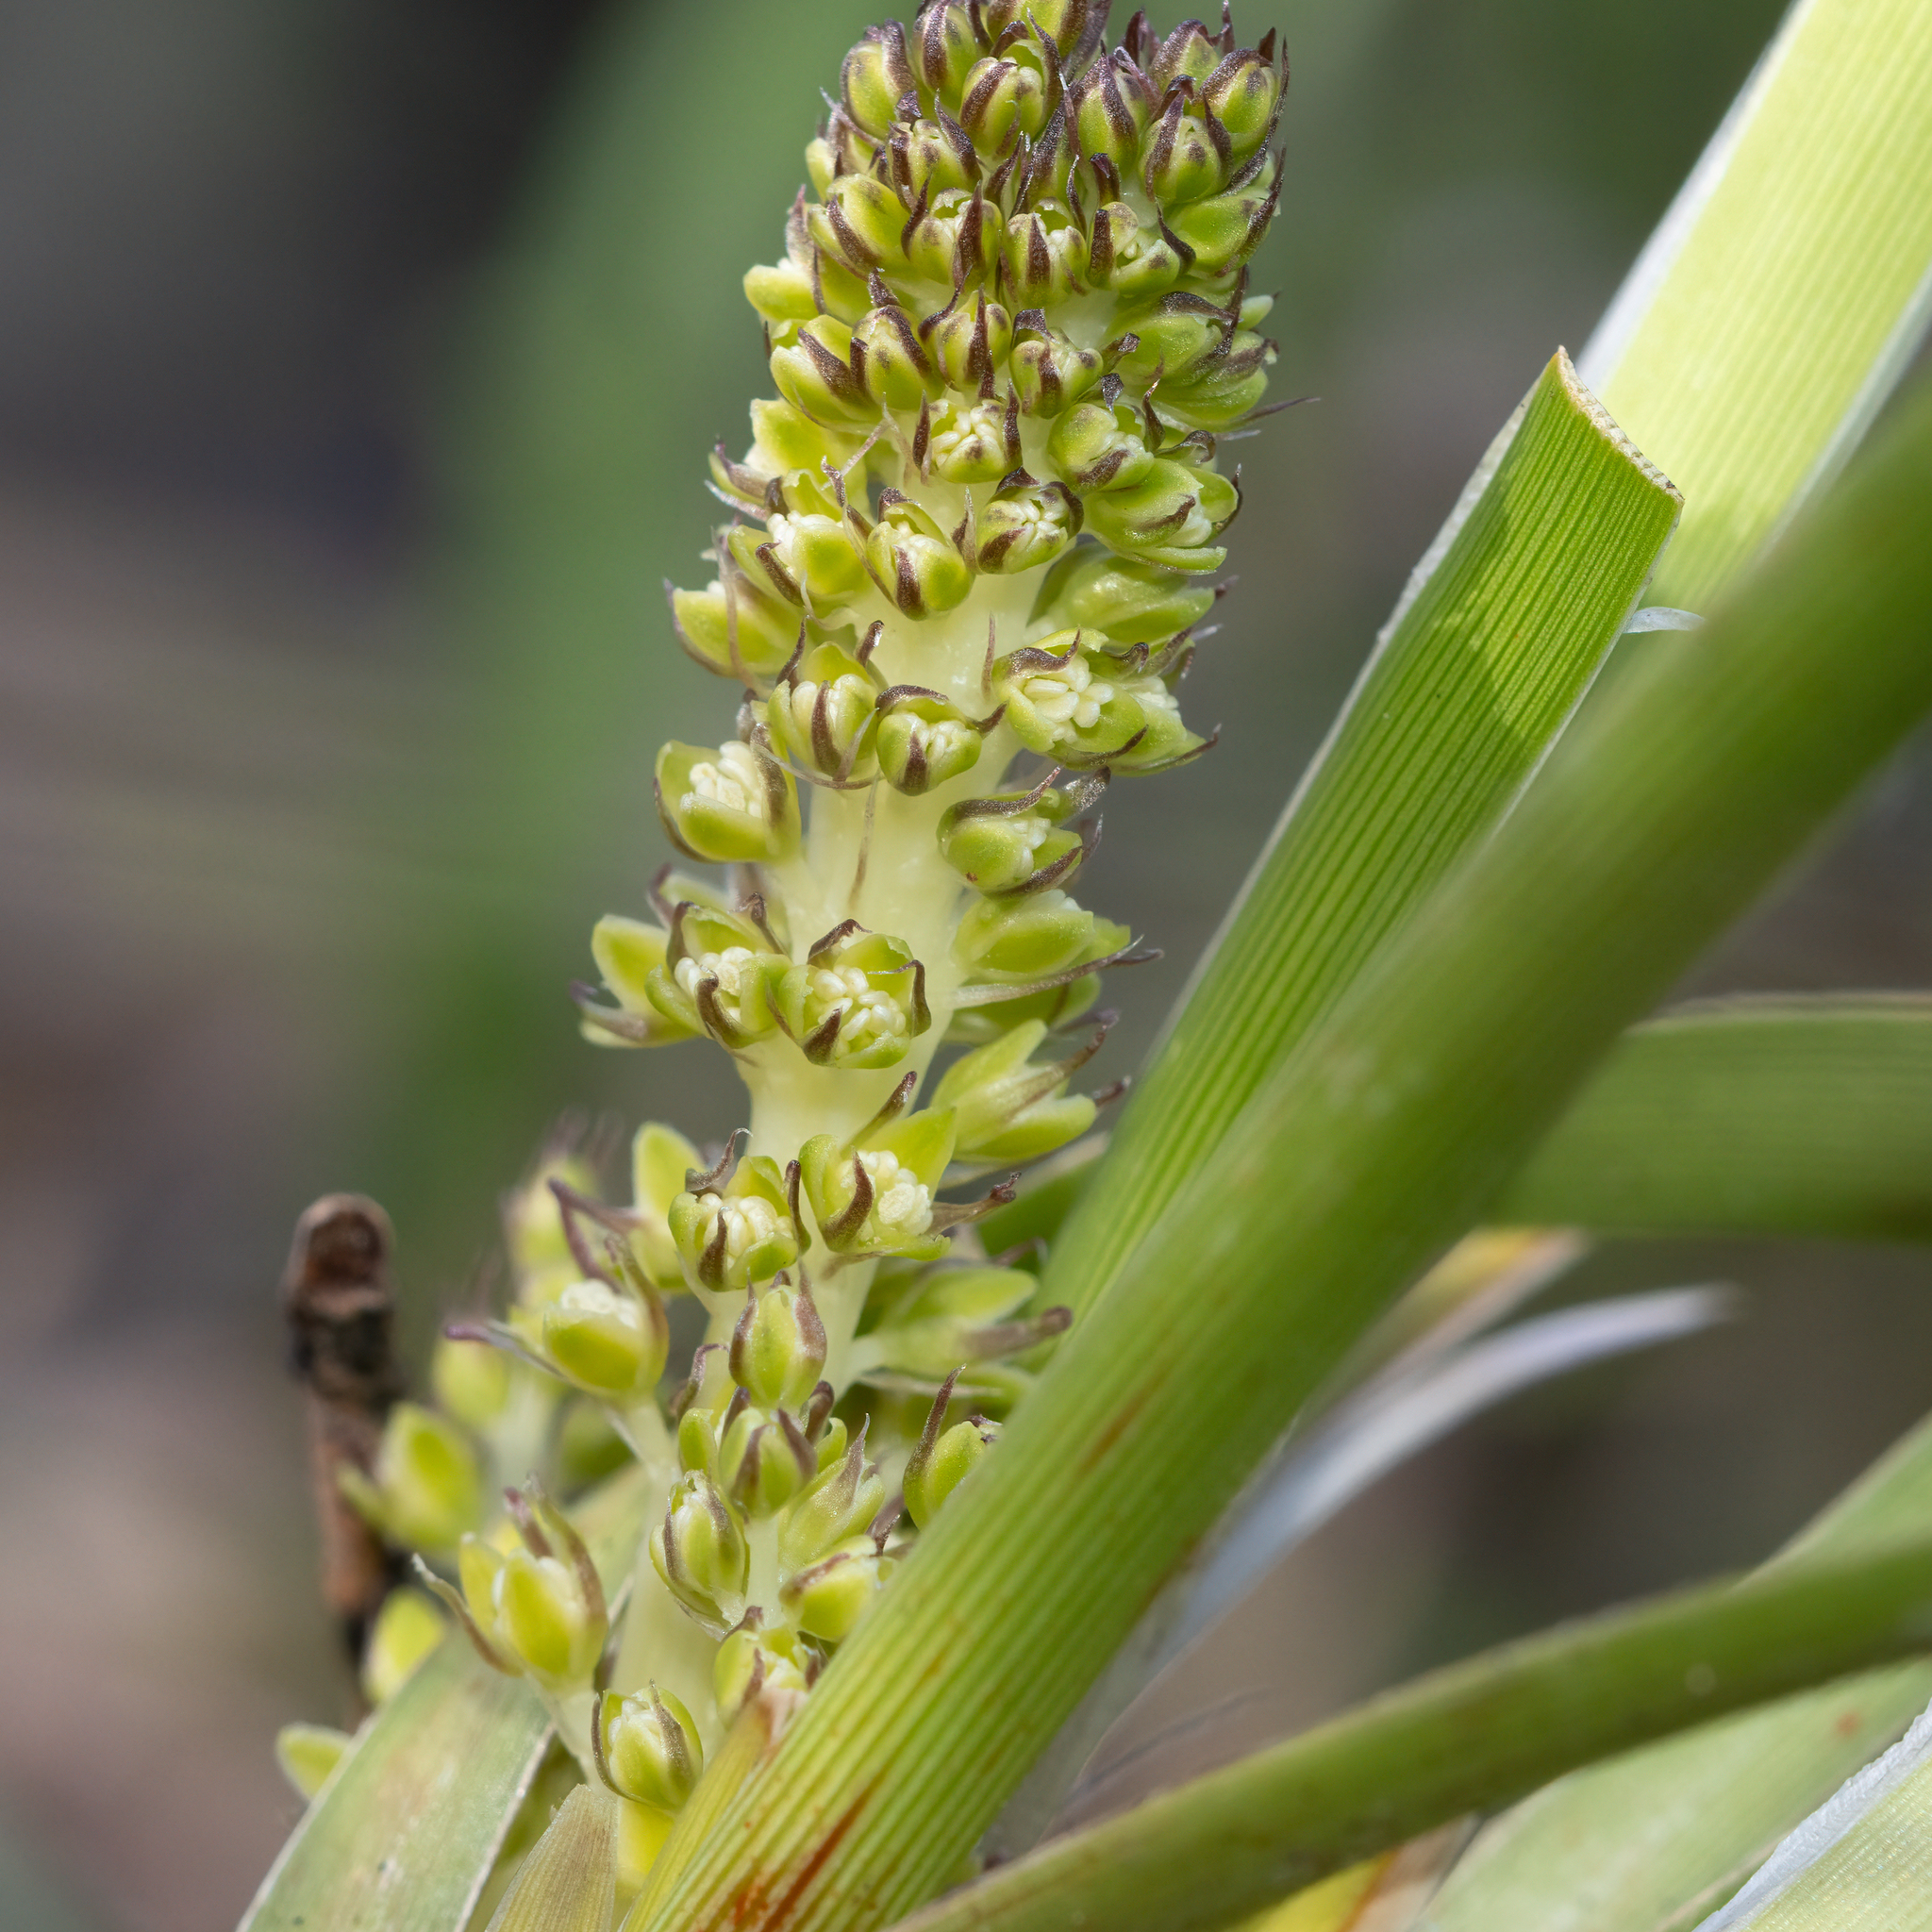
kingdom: Plantae
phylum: Tracheophyta
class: Liliopsida
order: Asparagales
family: Asparagaceae
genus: Lomandra
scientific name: Lomandra densiflora
